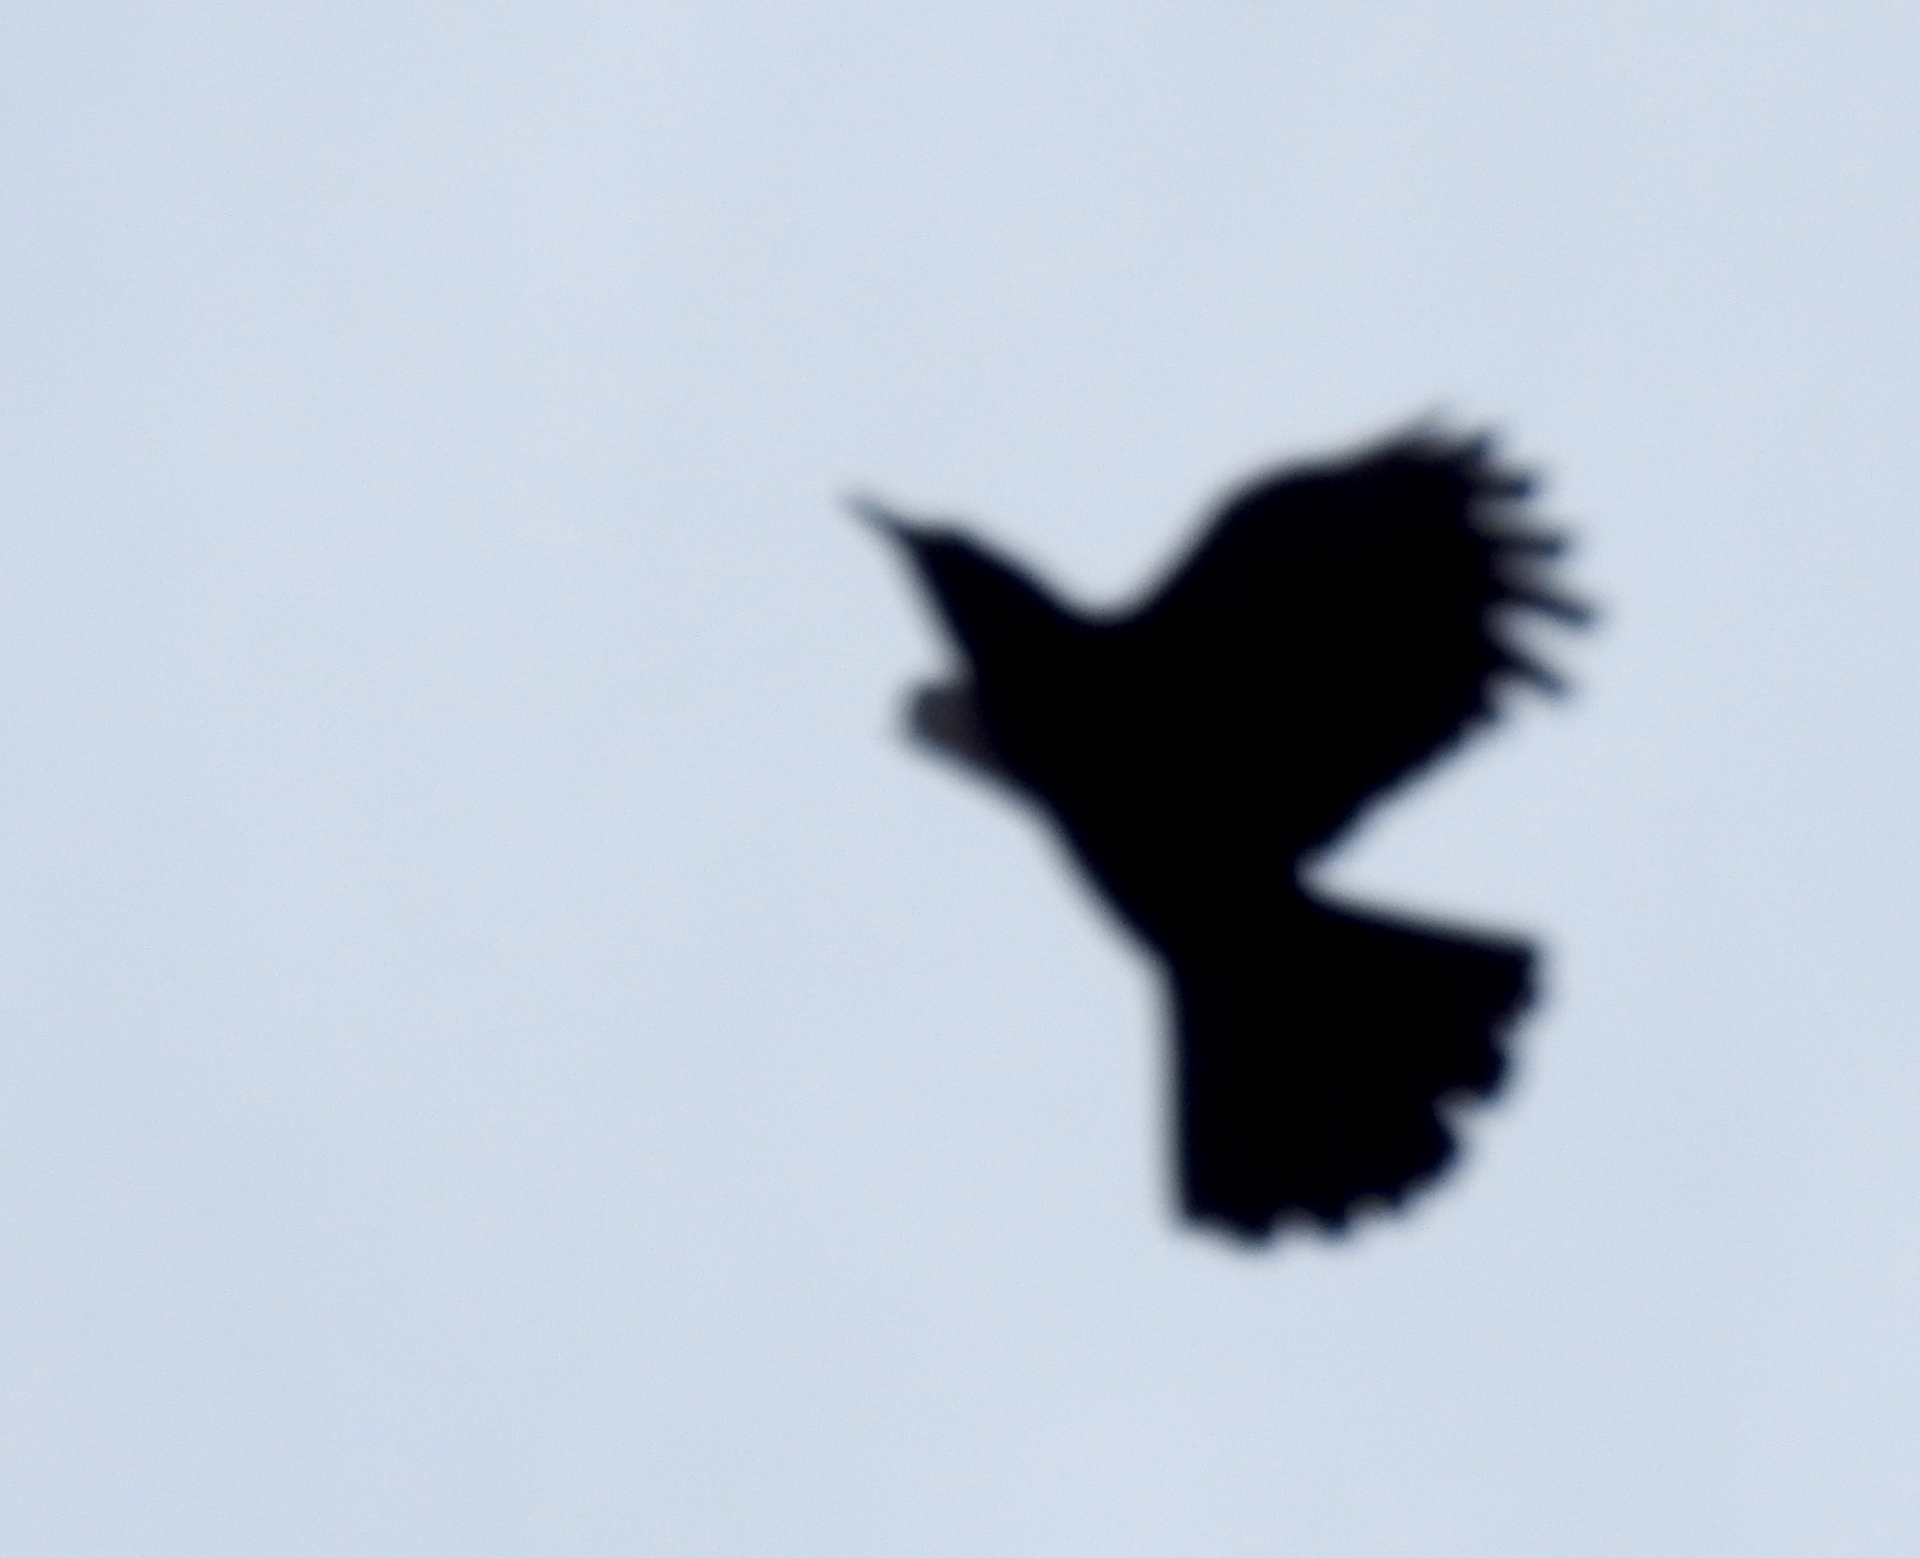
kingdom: Animalia
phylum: Chordata
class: Aves
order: Passeriformes
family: Corvidae
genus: Corvus
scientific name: Corvus brachyrhynchos
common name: American crow
